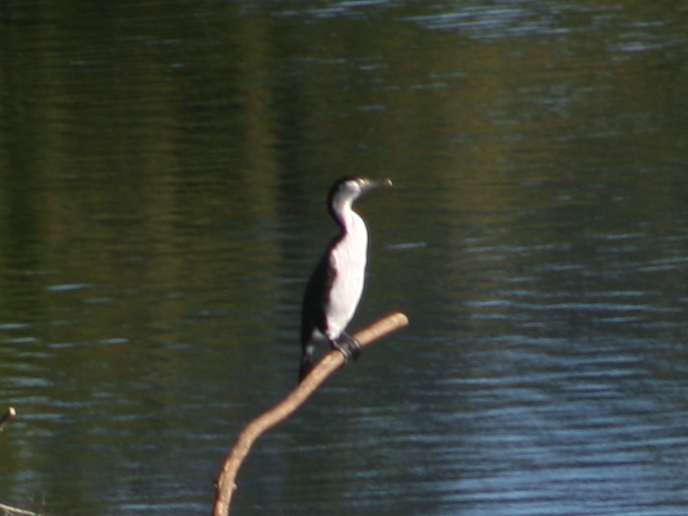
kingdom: Animalia
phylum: Chordata
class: Aves
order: Suliformes
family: Phalacrocoracidae
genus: Phalacrocorax
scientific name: Phalacrocorax varius
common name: Pied cormorant
